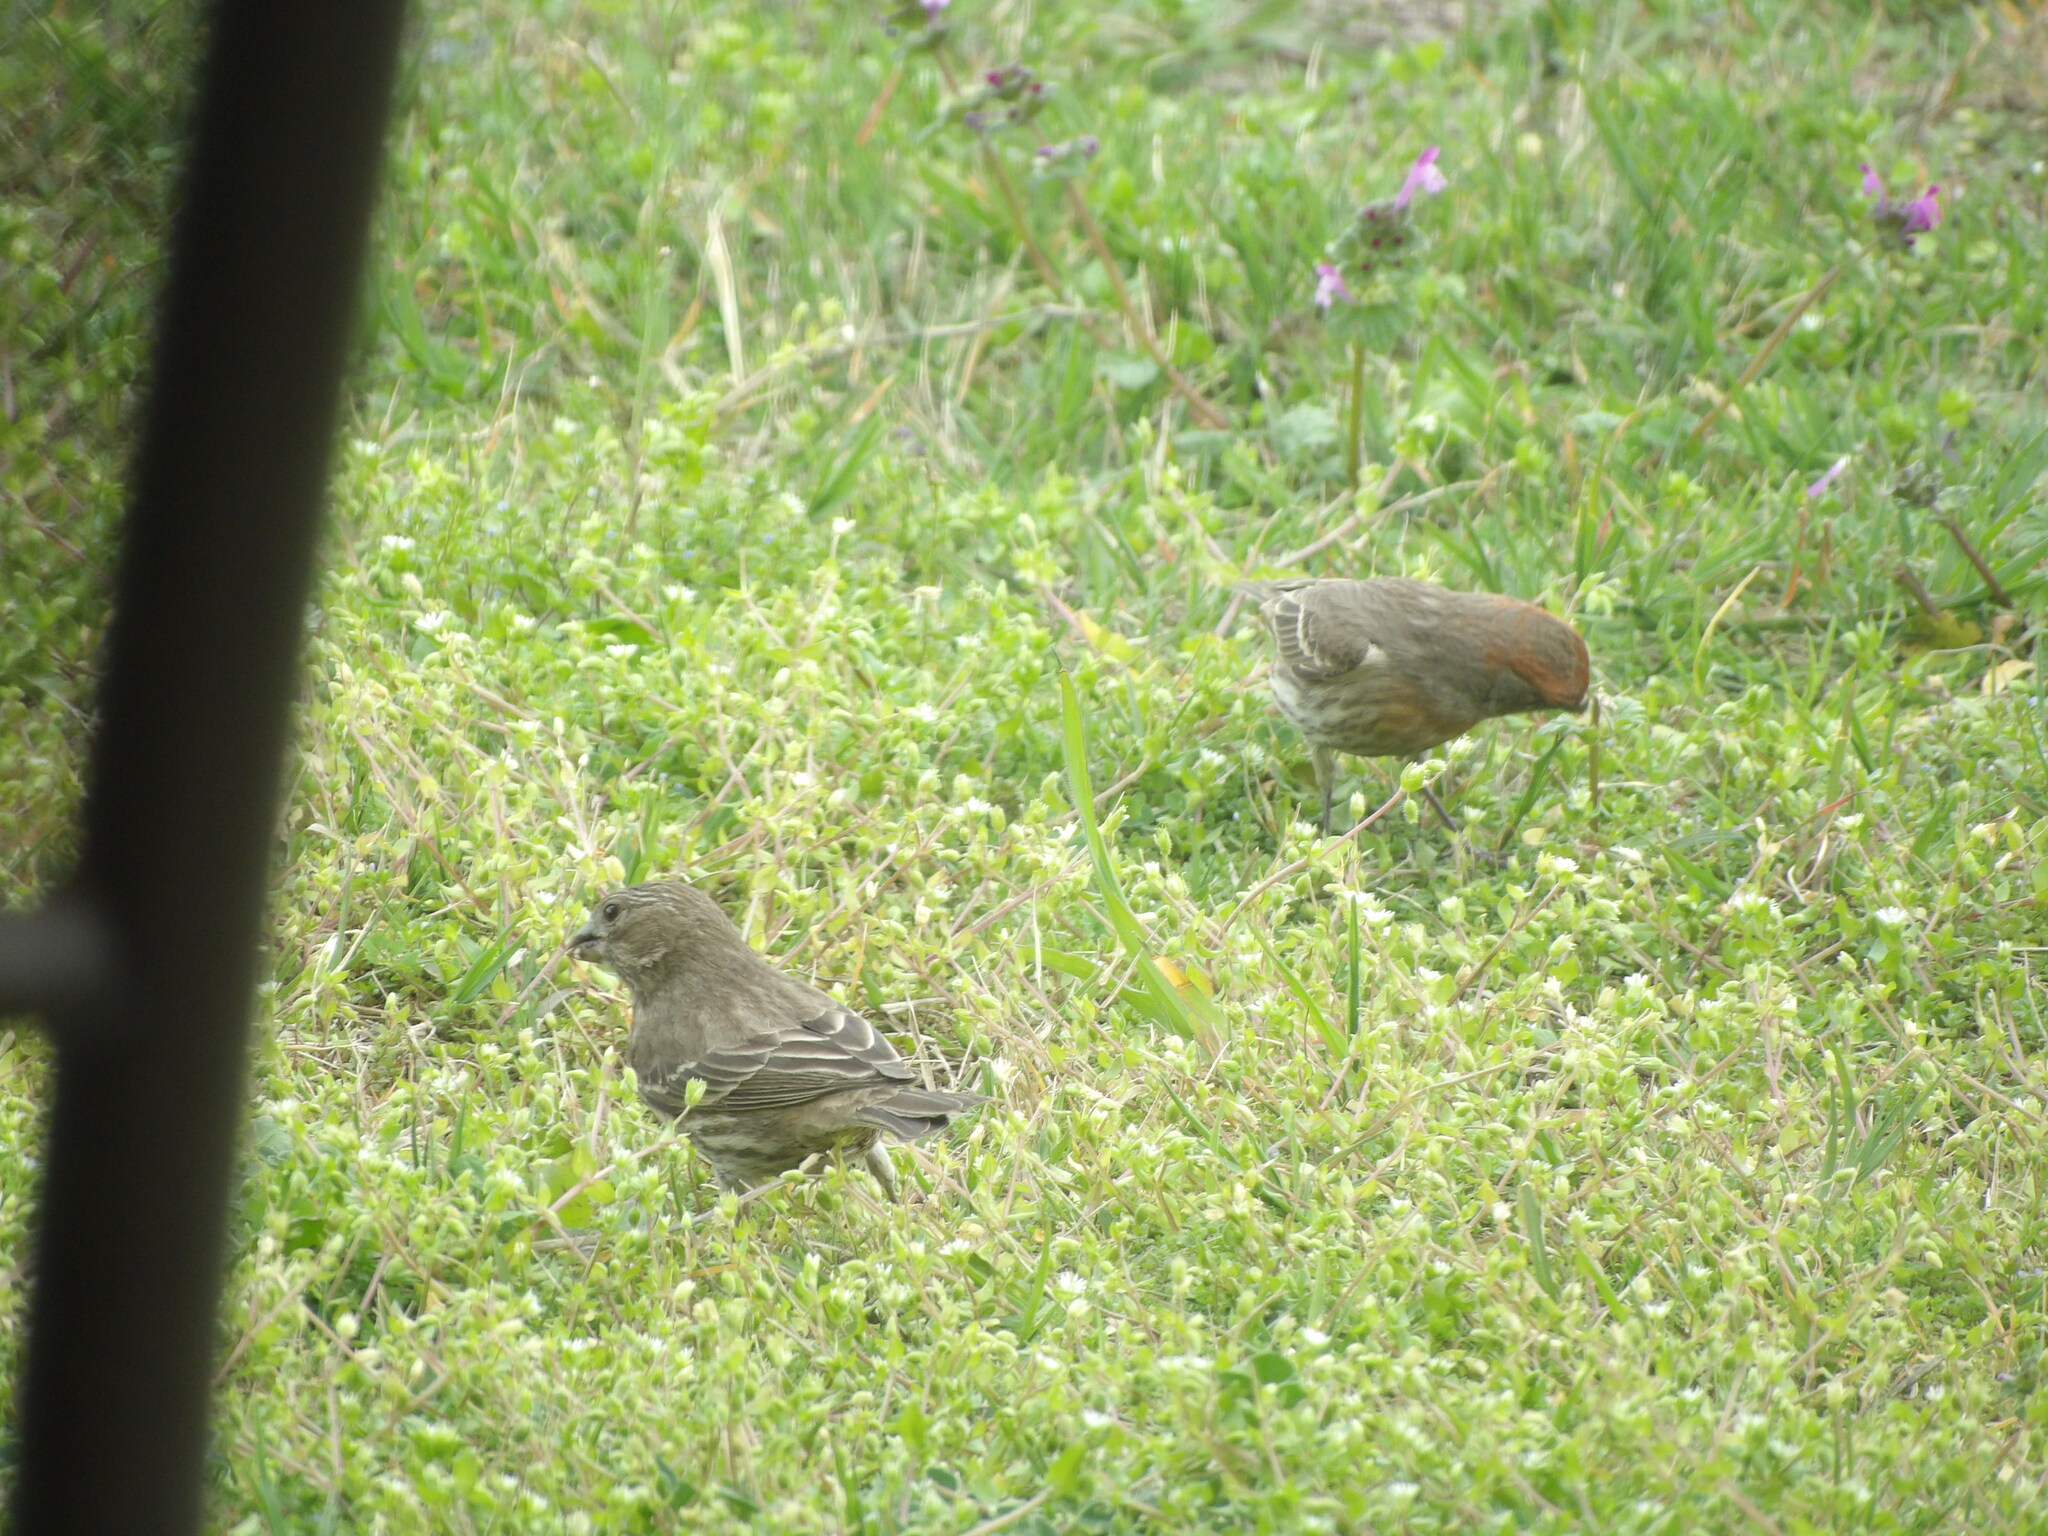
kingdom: Animalia
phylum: Chordata
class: Aves
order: Passeriformes
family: Fringillidae
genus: Haemorhous
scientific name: Haemorhous mexicanus
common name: House finch
